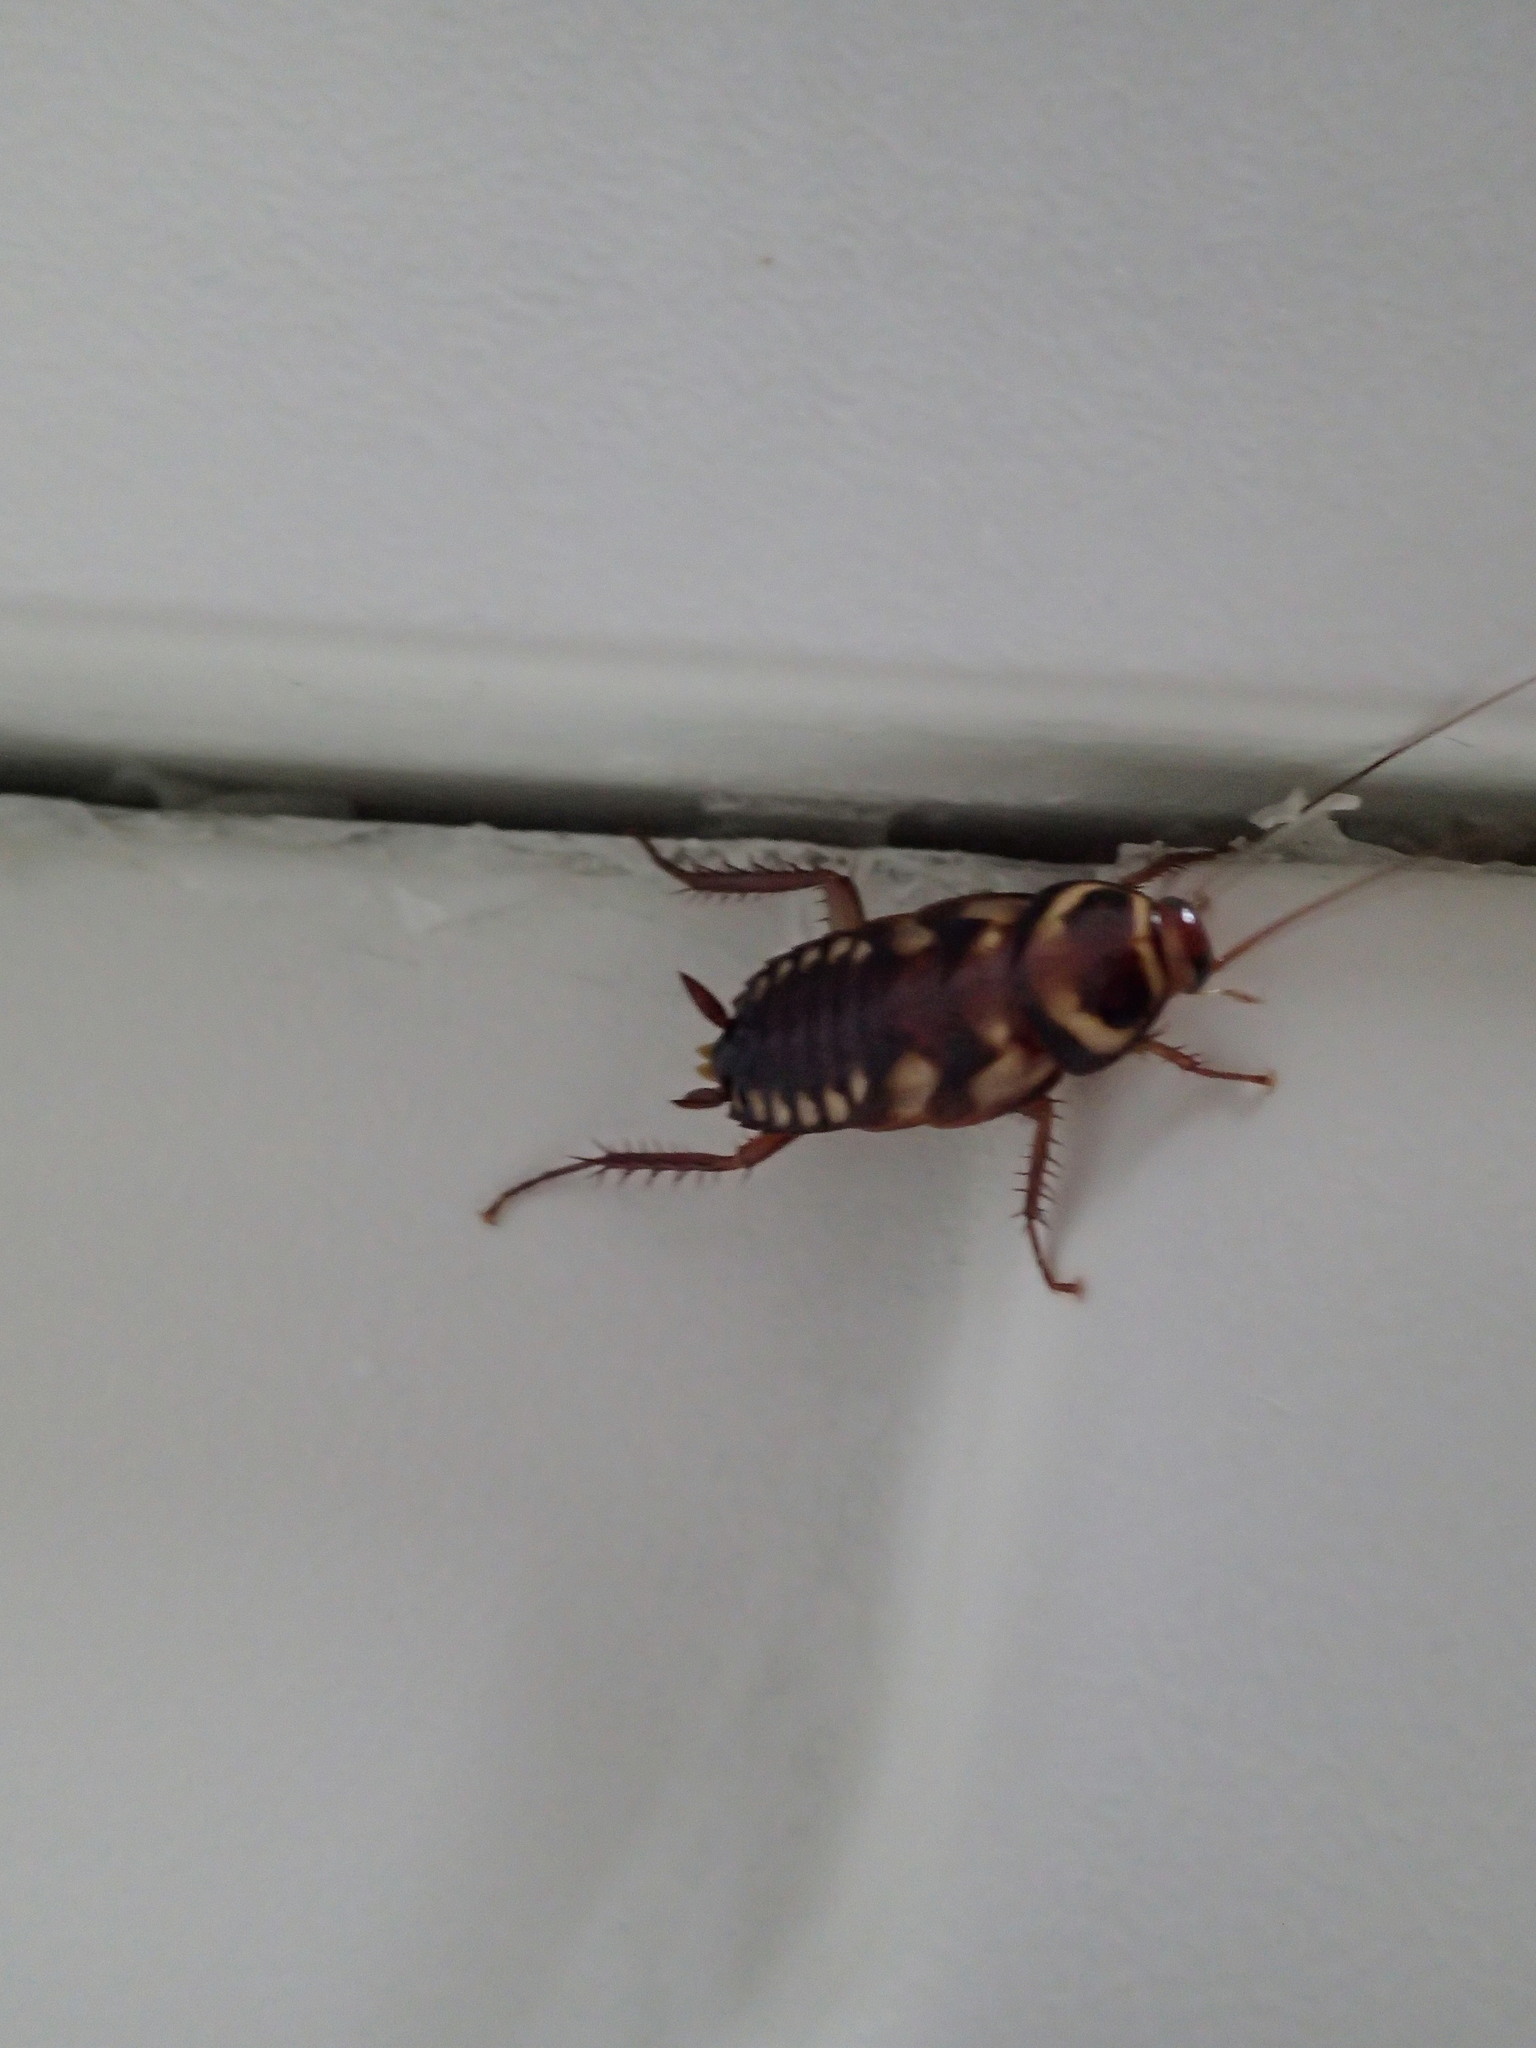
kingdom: Animalia
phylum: Arthropoda
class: Insecta
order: Blattodea
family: Blattidae
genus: Periplaneta
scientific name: Periplaneta australasiae
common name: Australian cockroach
